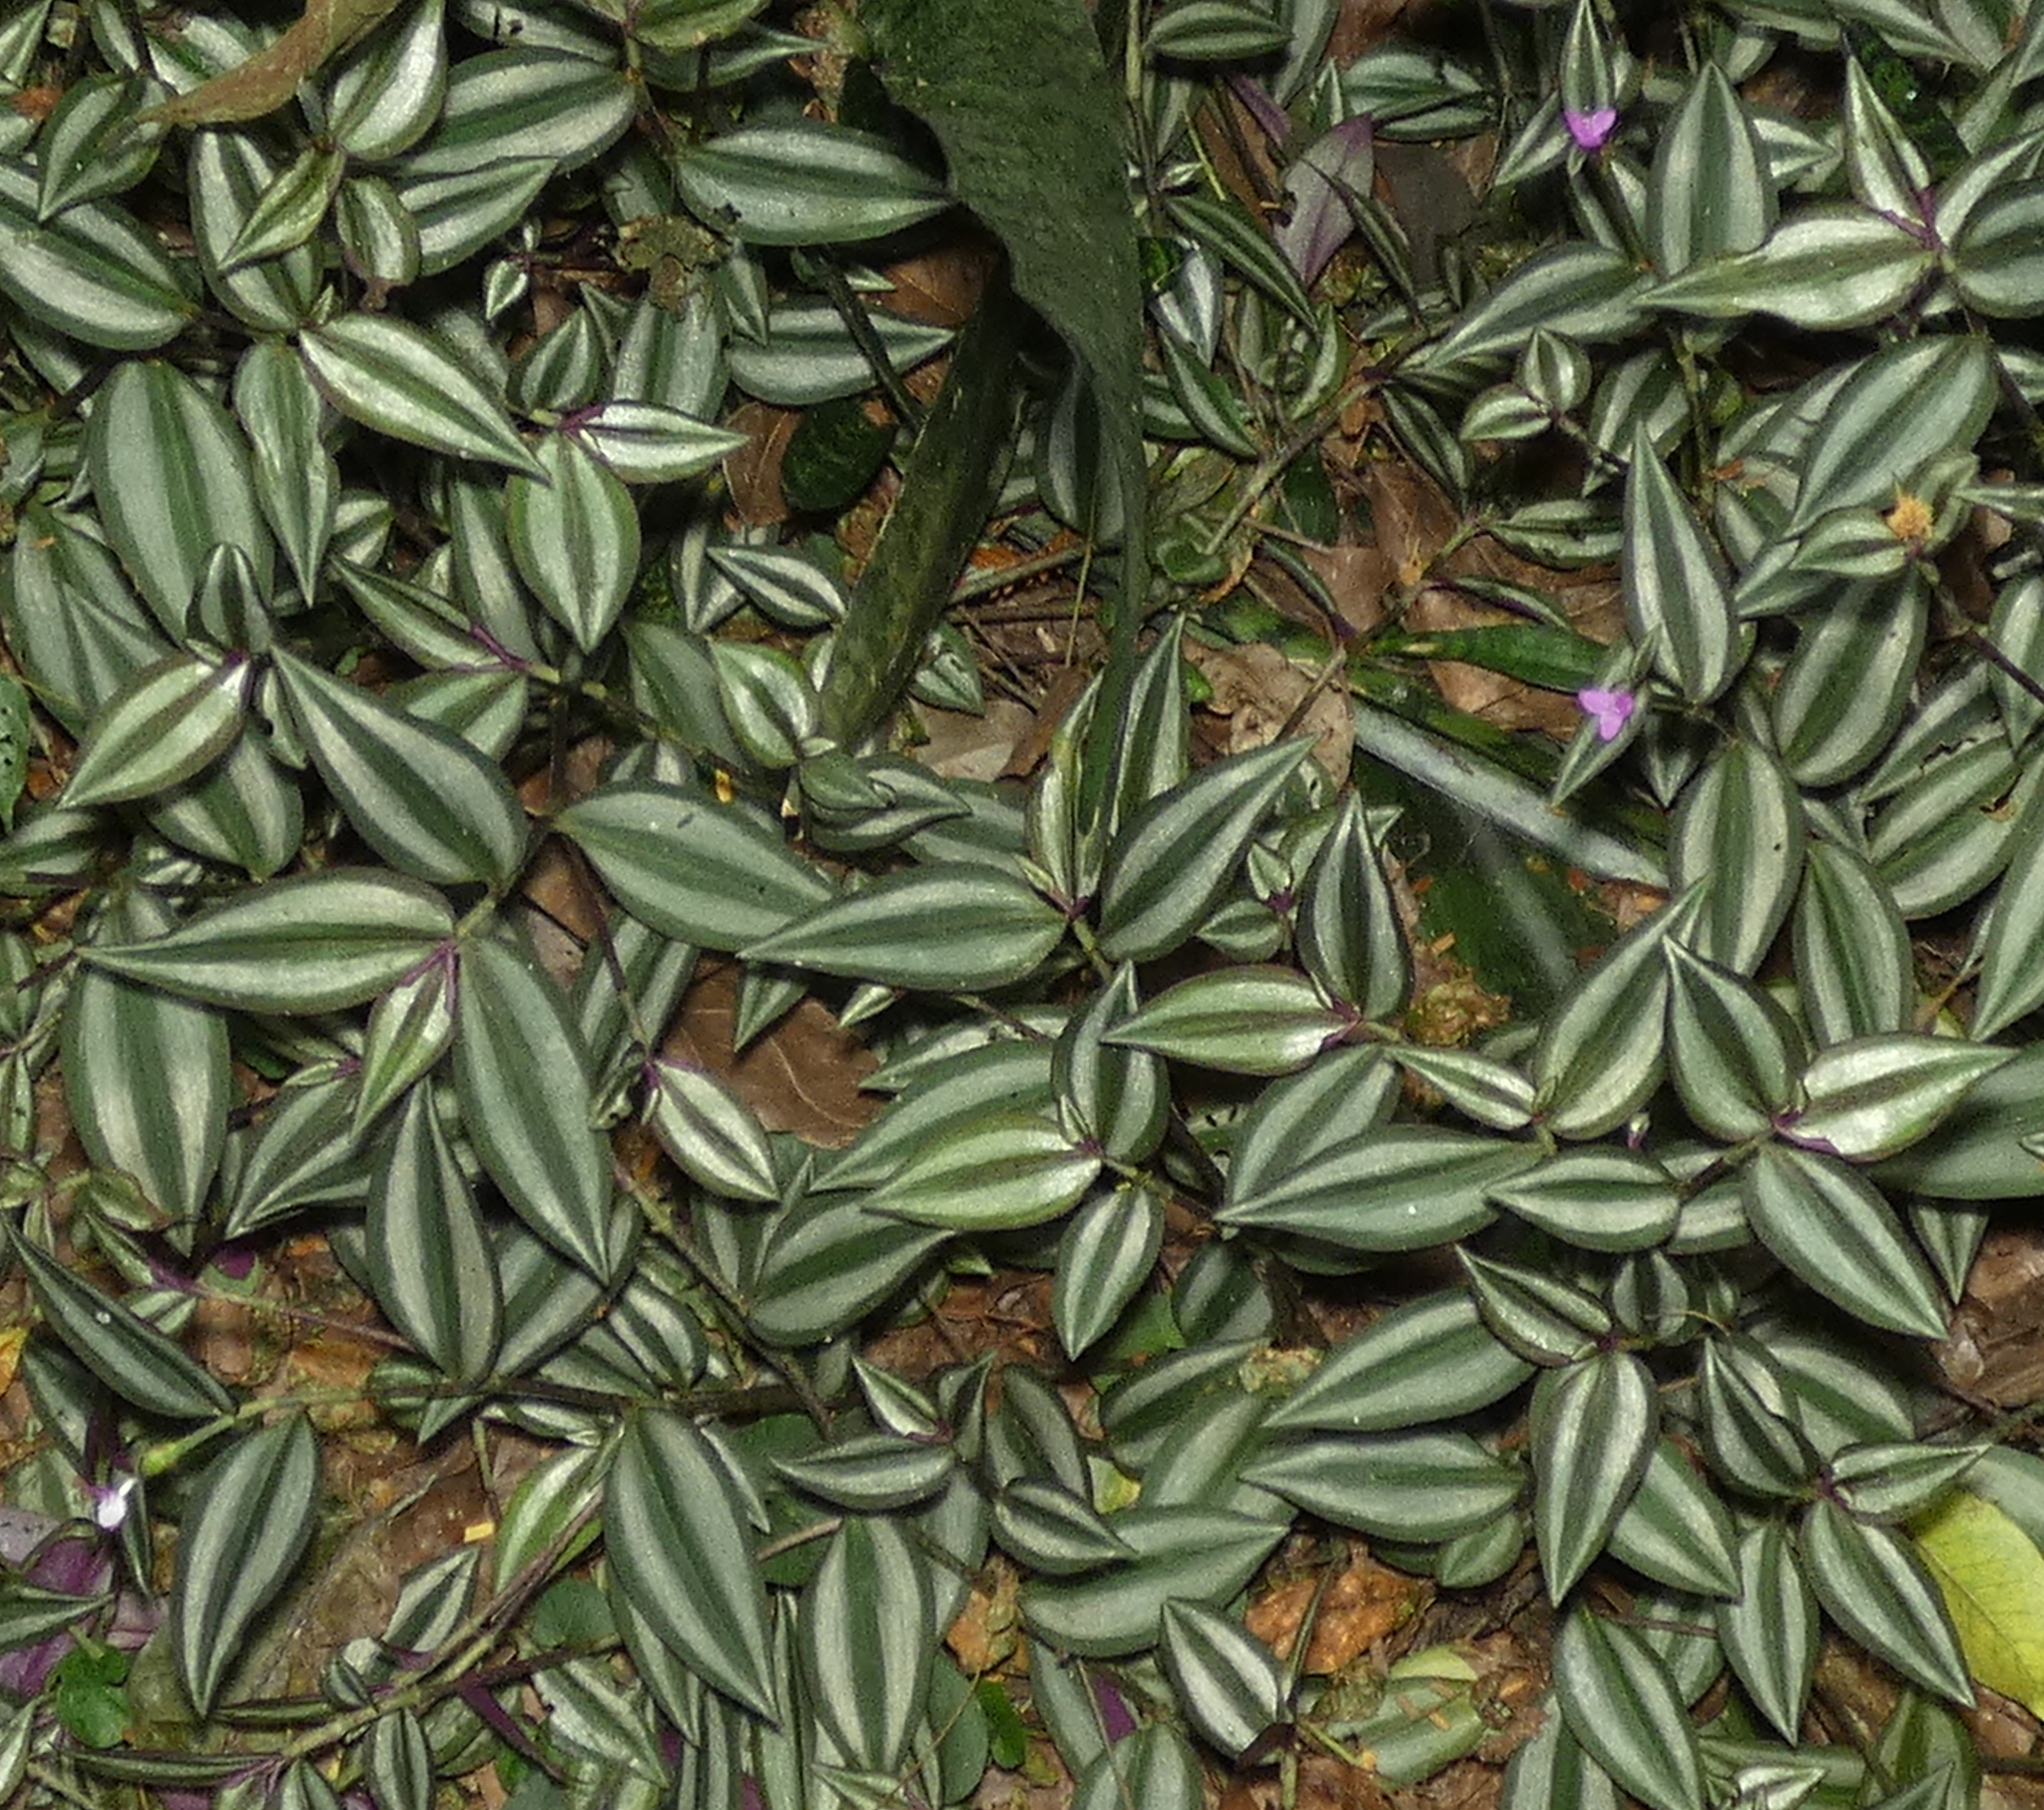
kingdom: Plantae
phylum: Tracheophyta
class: Liliopsida
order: Commelinales
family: Commelinaceae
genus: Tradescantia
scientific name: Tradescantia zebrina
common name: Inchplant
